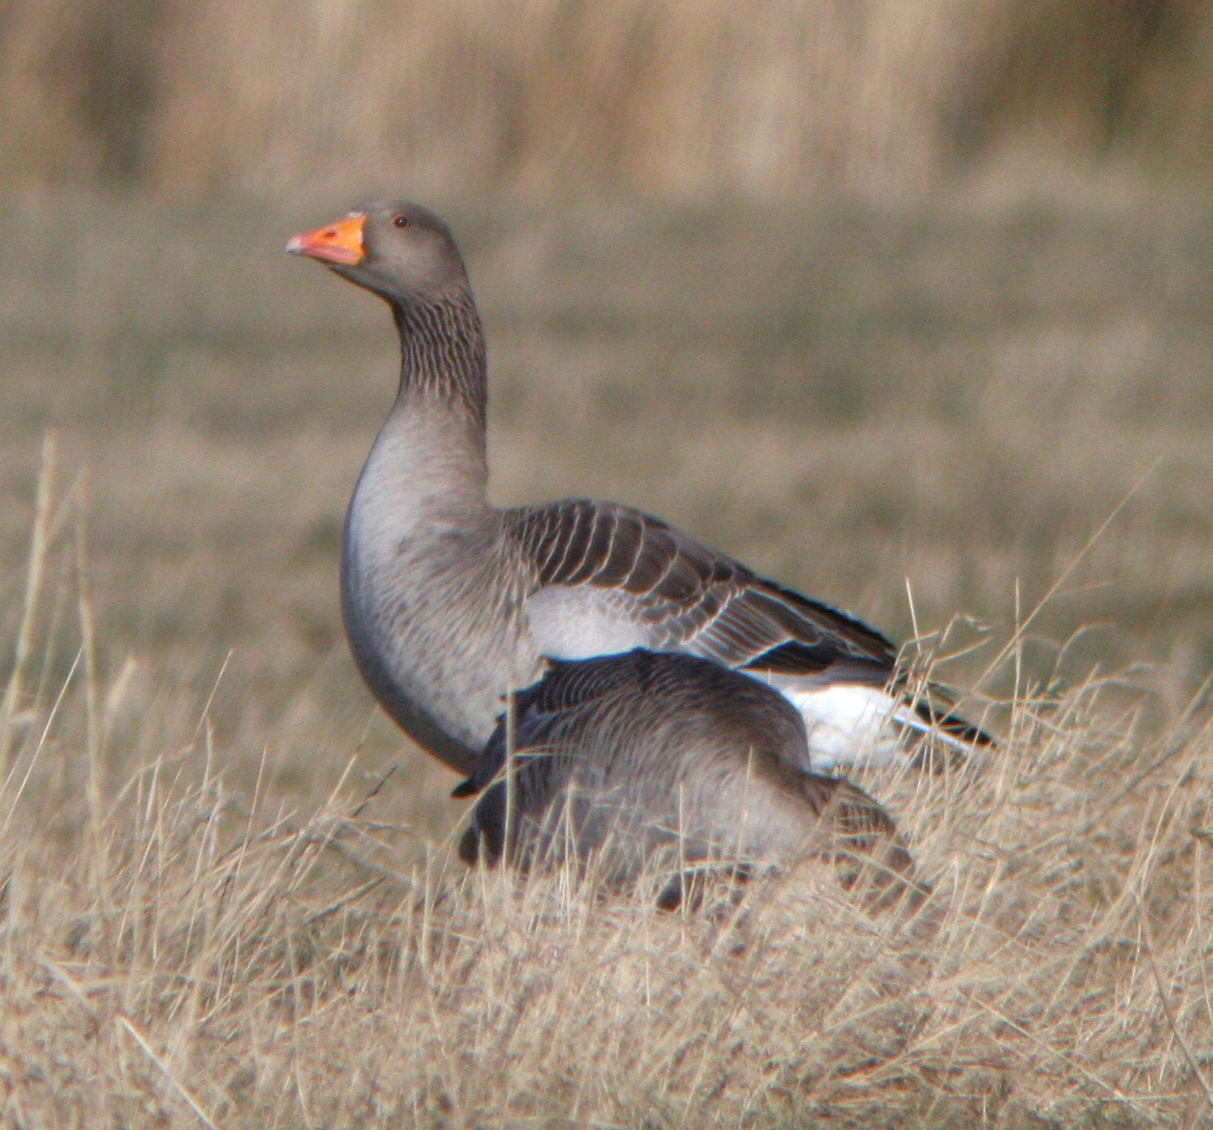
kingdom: Animalia
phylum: Chordata
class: Aves
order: Anseriformes
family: Anatidae
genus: Anser
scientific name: Anser anser
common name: Greylag goose
